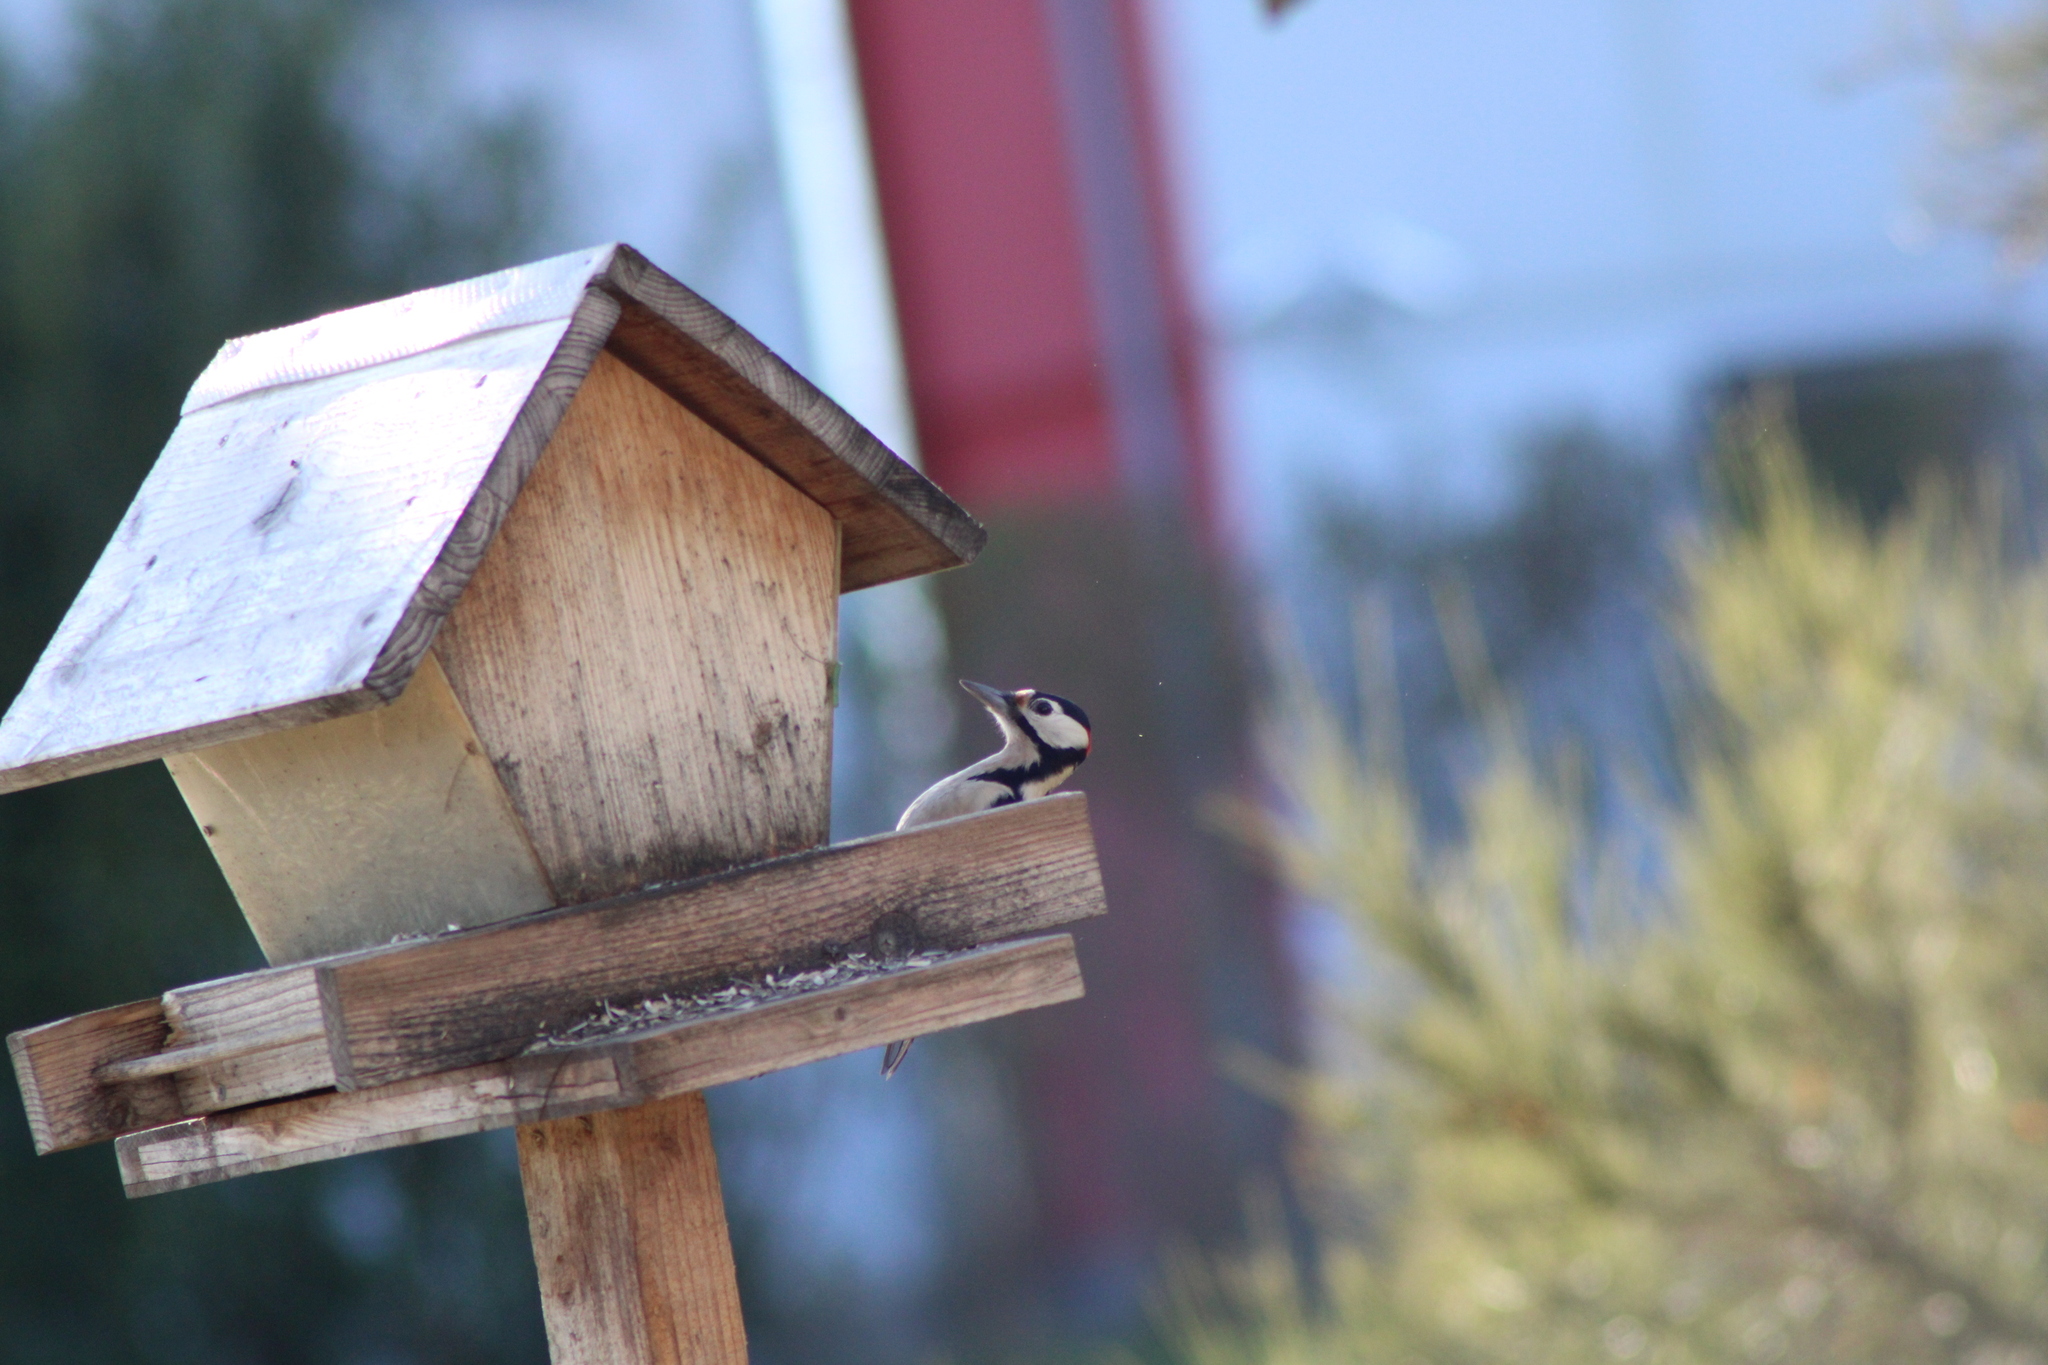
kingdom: Animalia
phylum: Chordata
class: Aves
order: Piciformes
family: Picidae
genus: Dendrocopos
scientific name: Dendrocopos major
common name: Great spotted woodpecker
